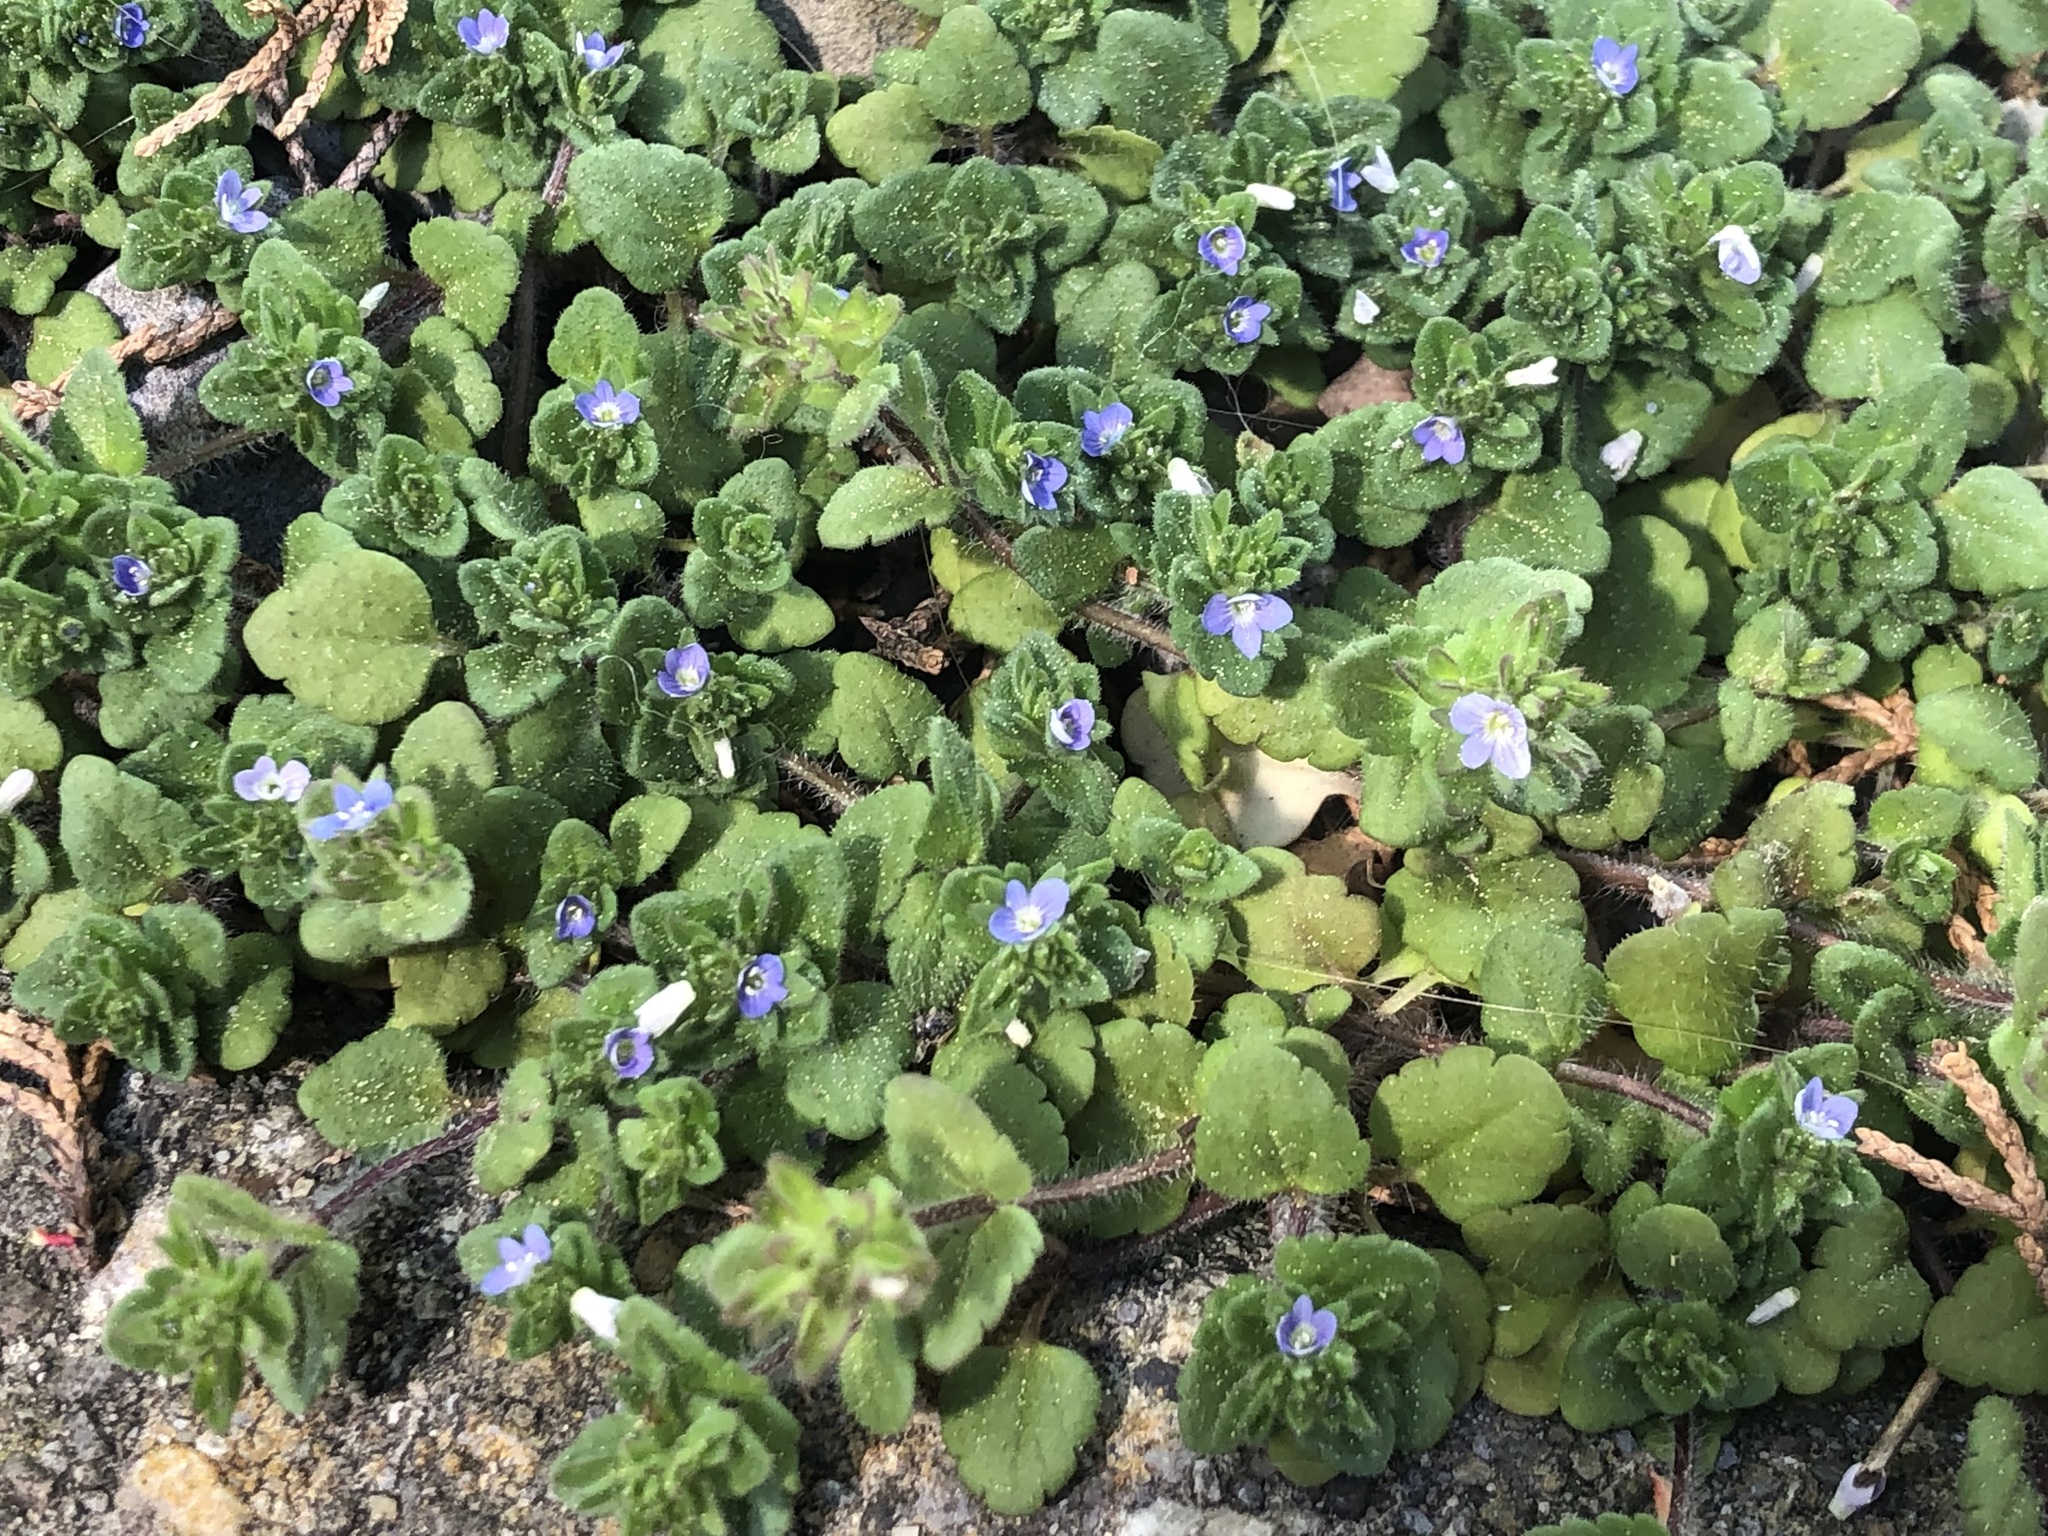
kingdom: Plantae
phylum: Tracheophyta
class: Magnoliopsida
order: Lamiales
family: Plantaginaceae
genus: Veronica
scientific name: Veronica arvensis
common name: Corn speedwell
